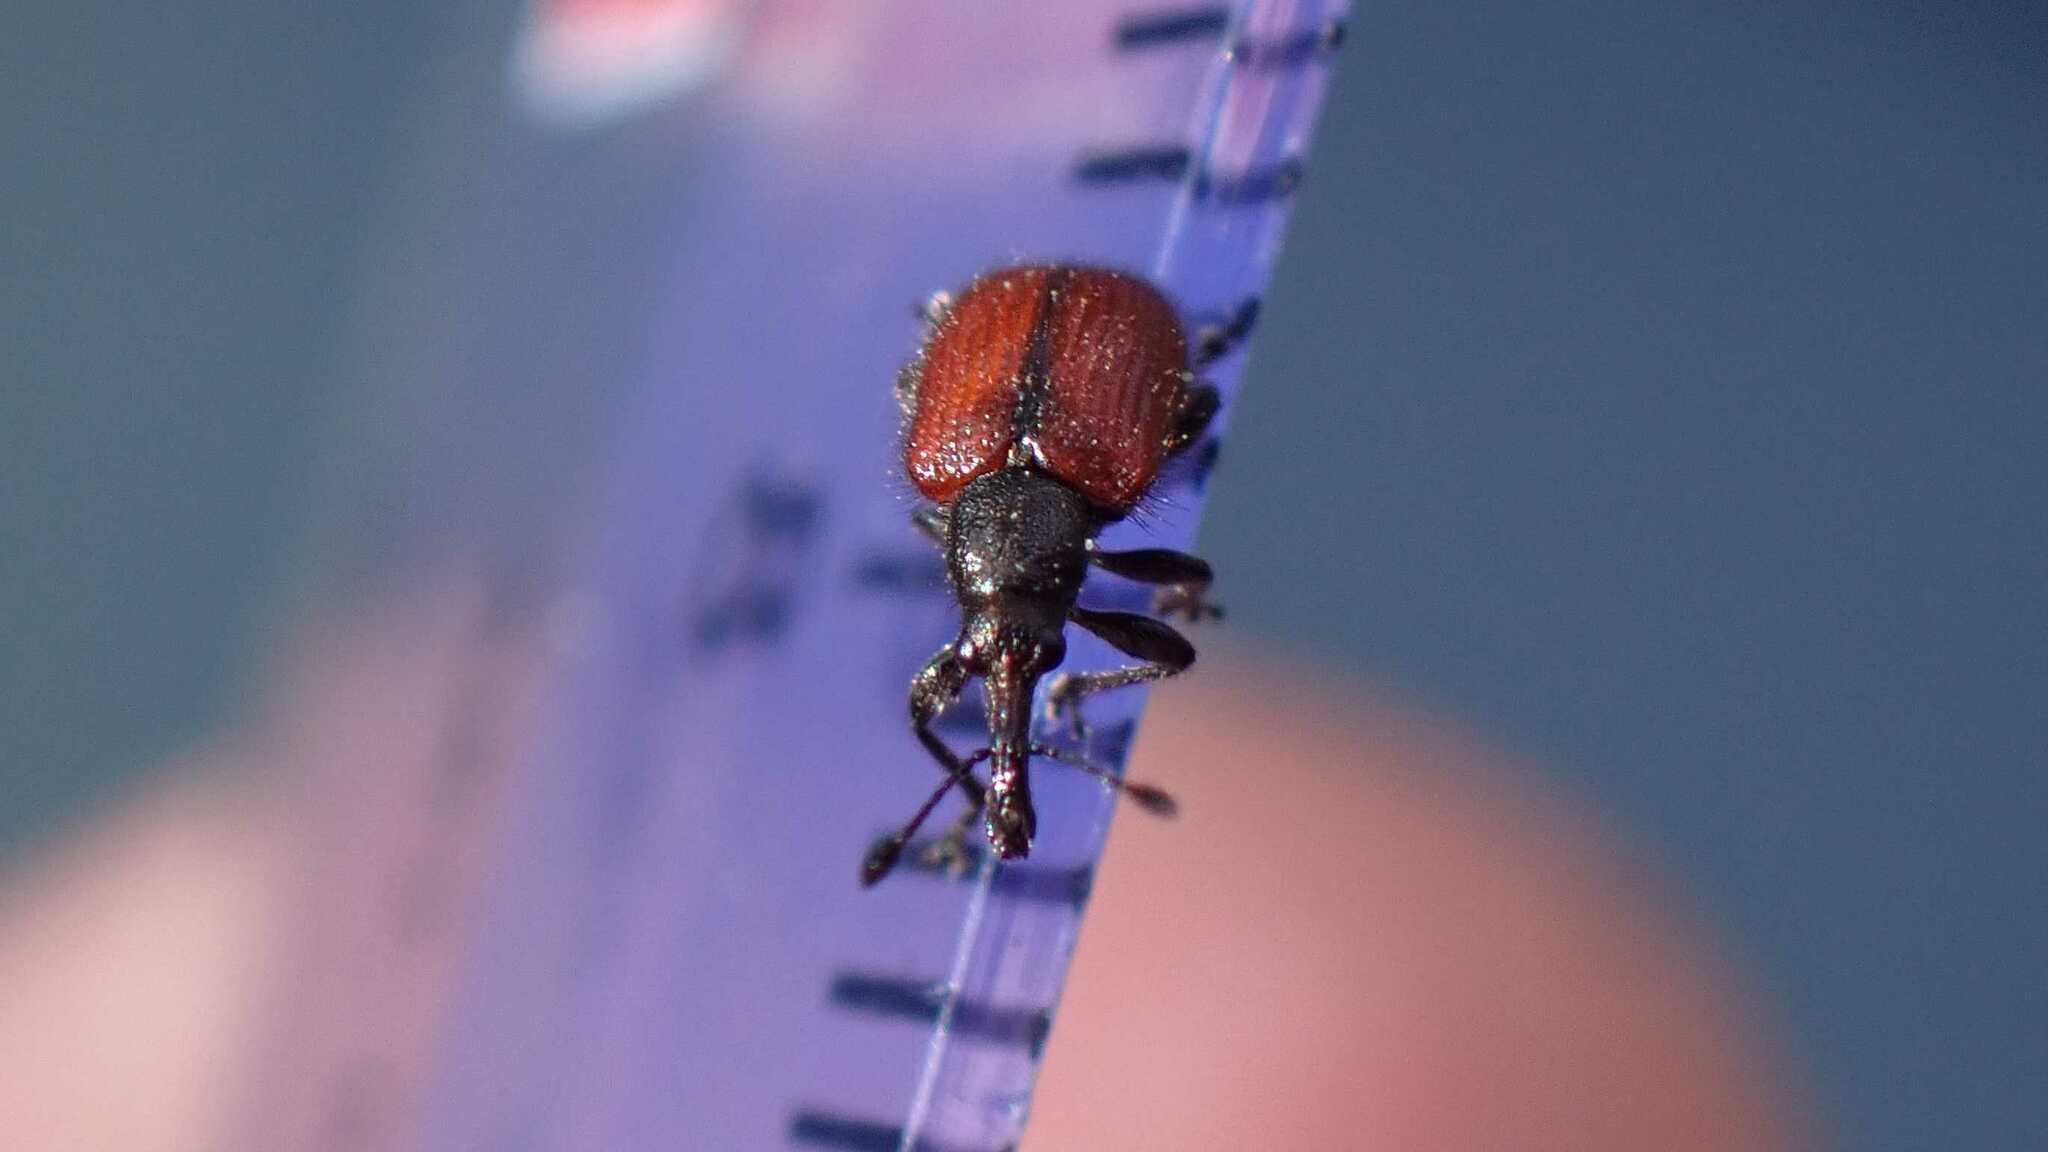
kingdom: Animalia
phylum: Arthropoda
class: Insecta
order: Coleoptera
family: Rhynchitidae
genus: Tatianaerhynchites
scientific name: Tatianaerhynchites aequatus
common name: Apple fruit rhynchites
